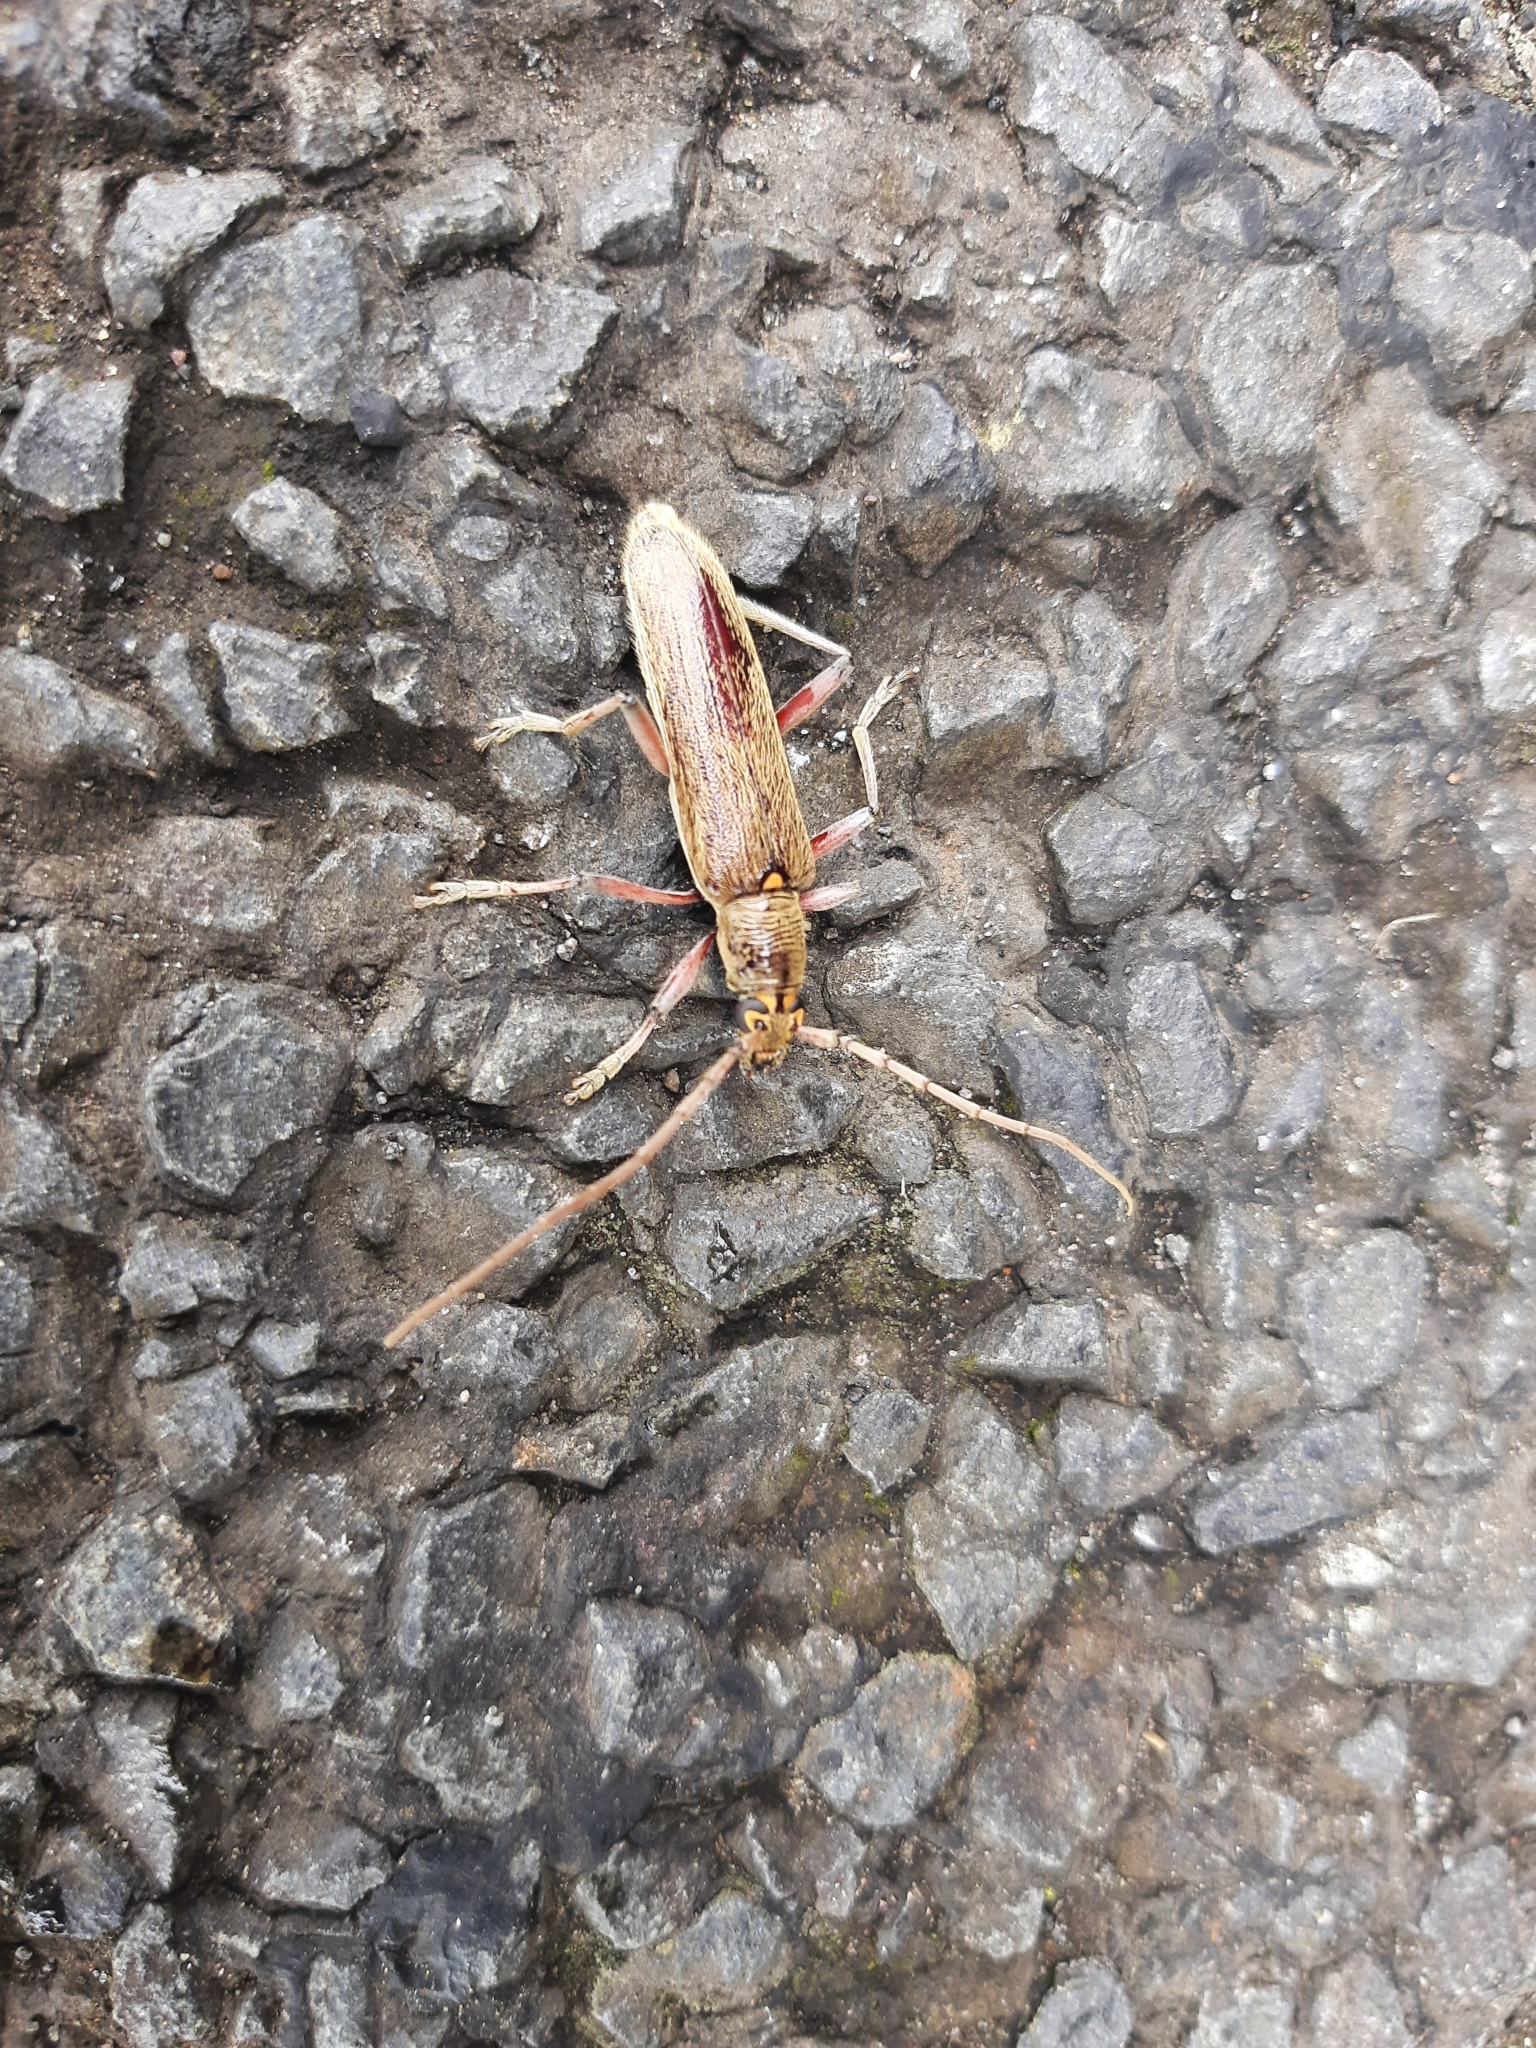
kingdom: Animalia
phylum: Arthropoda
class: Insecta
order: Coleoptera
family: Cerambycidae
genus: Oemona
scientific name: Oemona hirta
